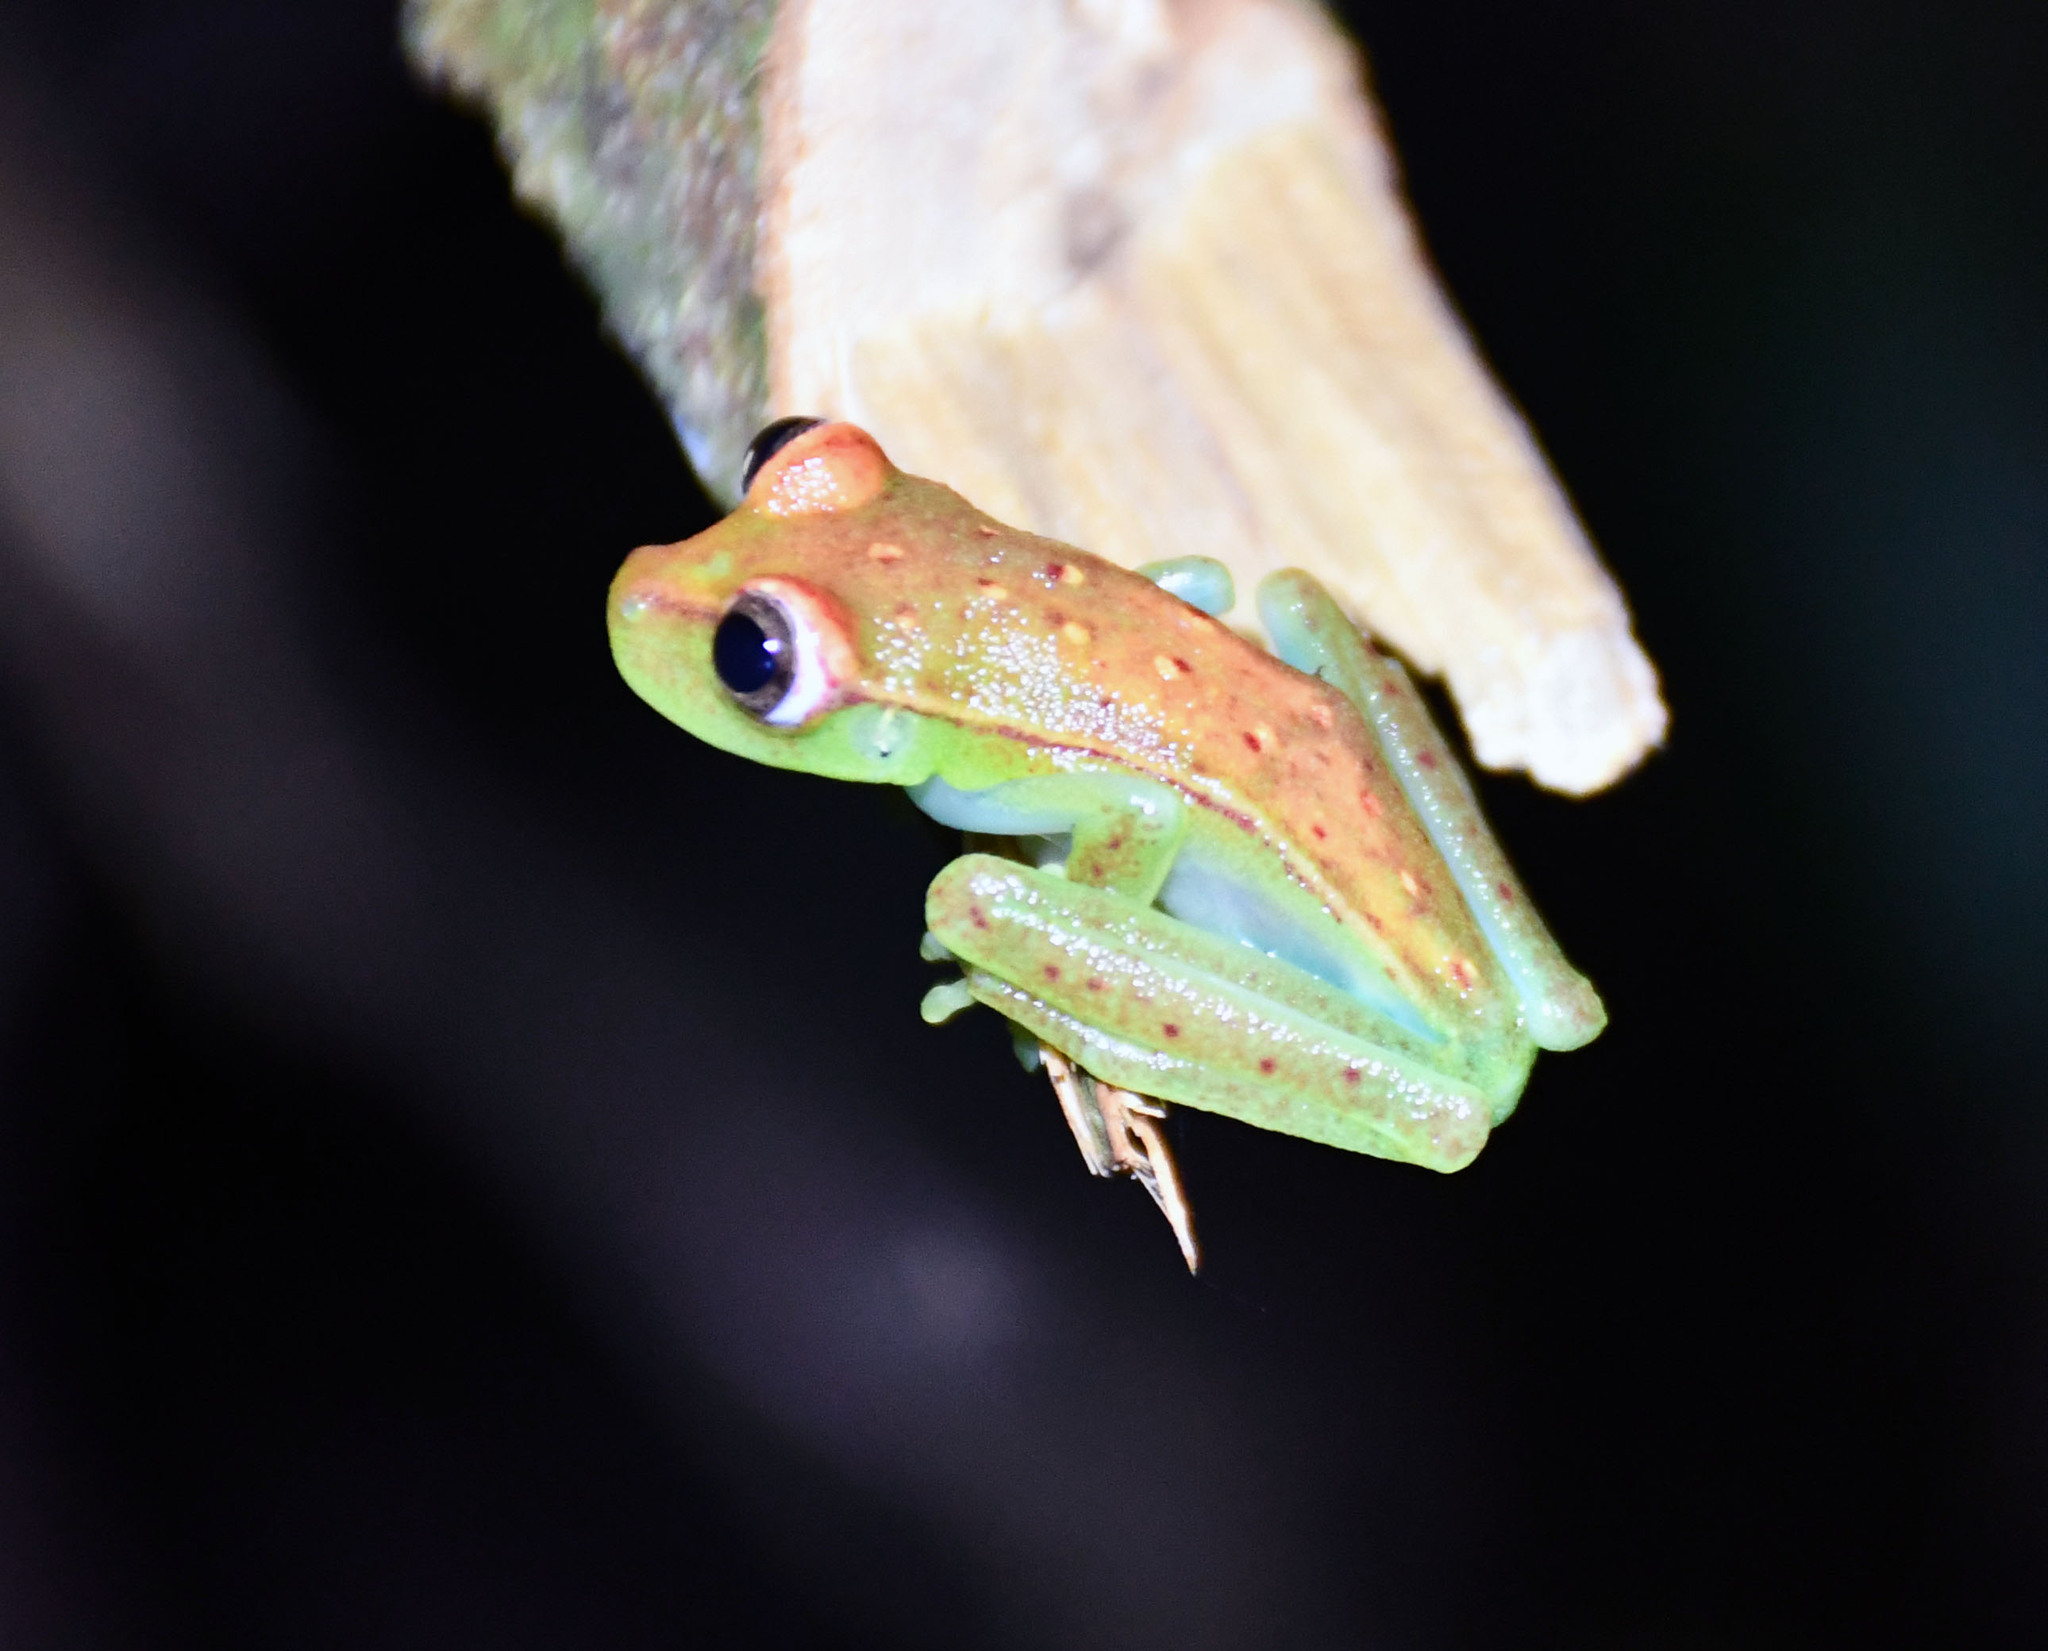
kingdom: Animalia
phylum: Chordata
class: Amphibia
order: Anura
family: Hylidae
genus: Boana
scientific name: Boana punctata
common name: Polka-dot treefrog
